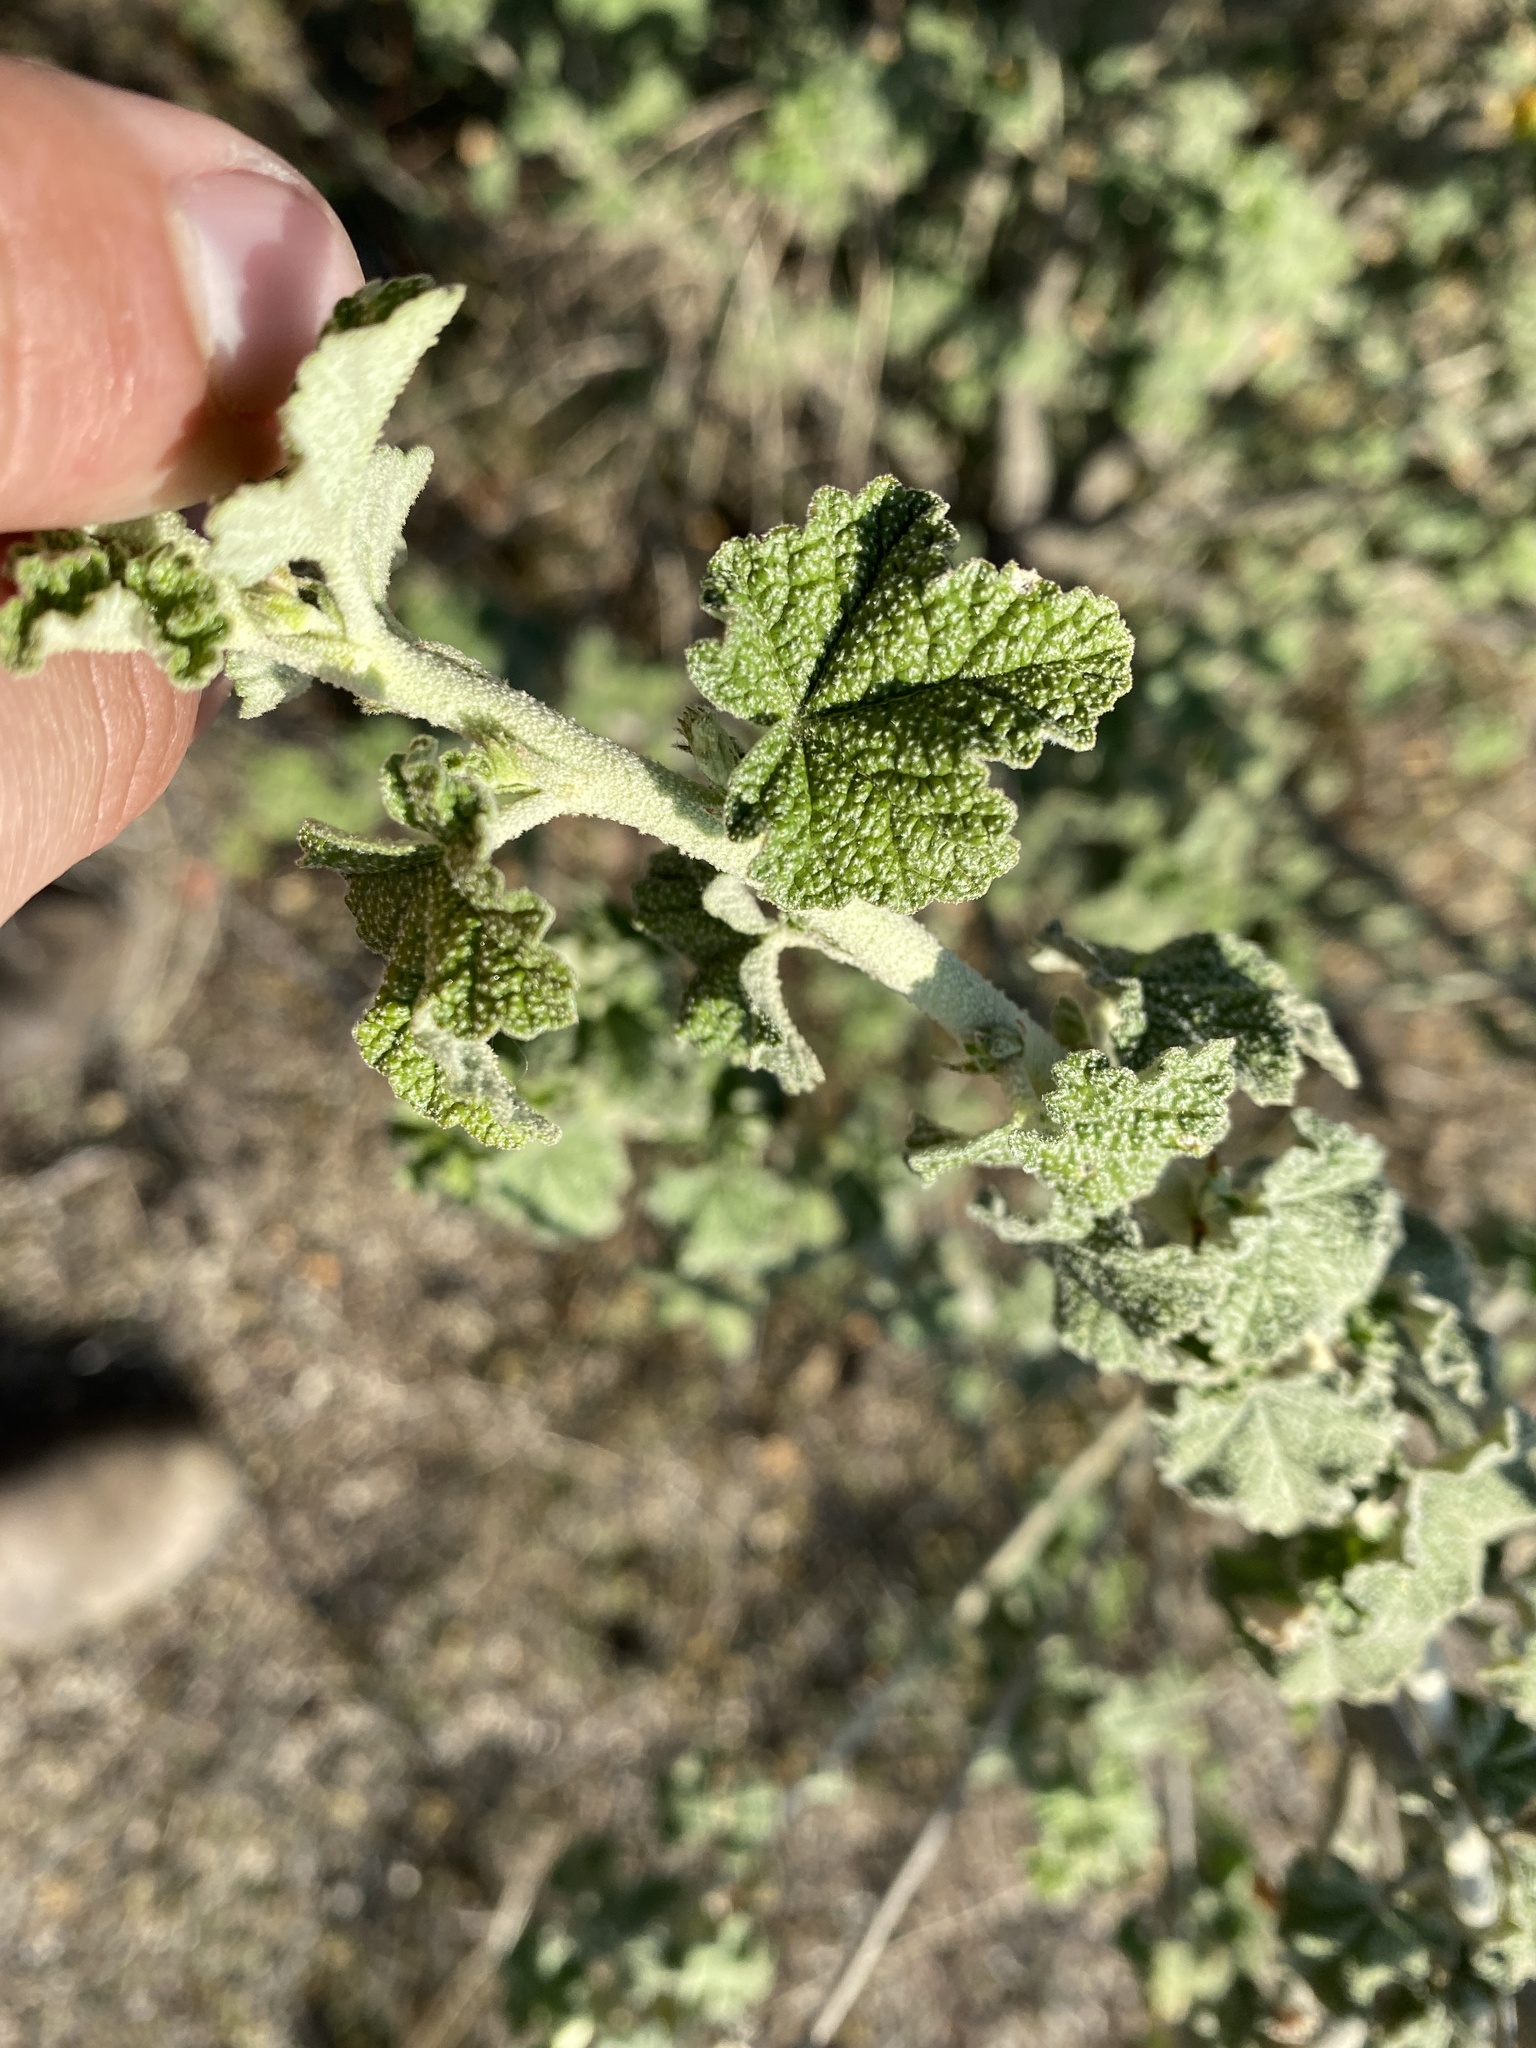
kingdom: Plantae
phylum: Tracheophyta
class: Magnoliopsida
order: Malvales
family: Malvaceae
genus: Malacothamnus
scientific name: Malacothamnus fasciculatus
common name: Sant cruz island bush-mallow
